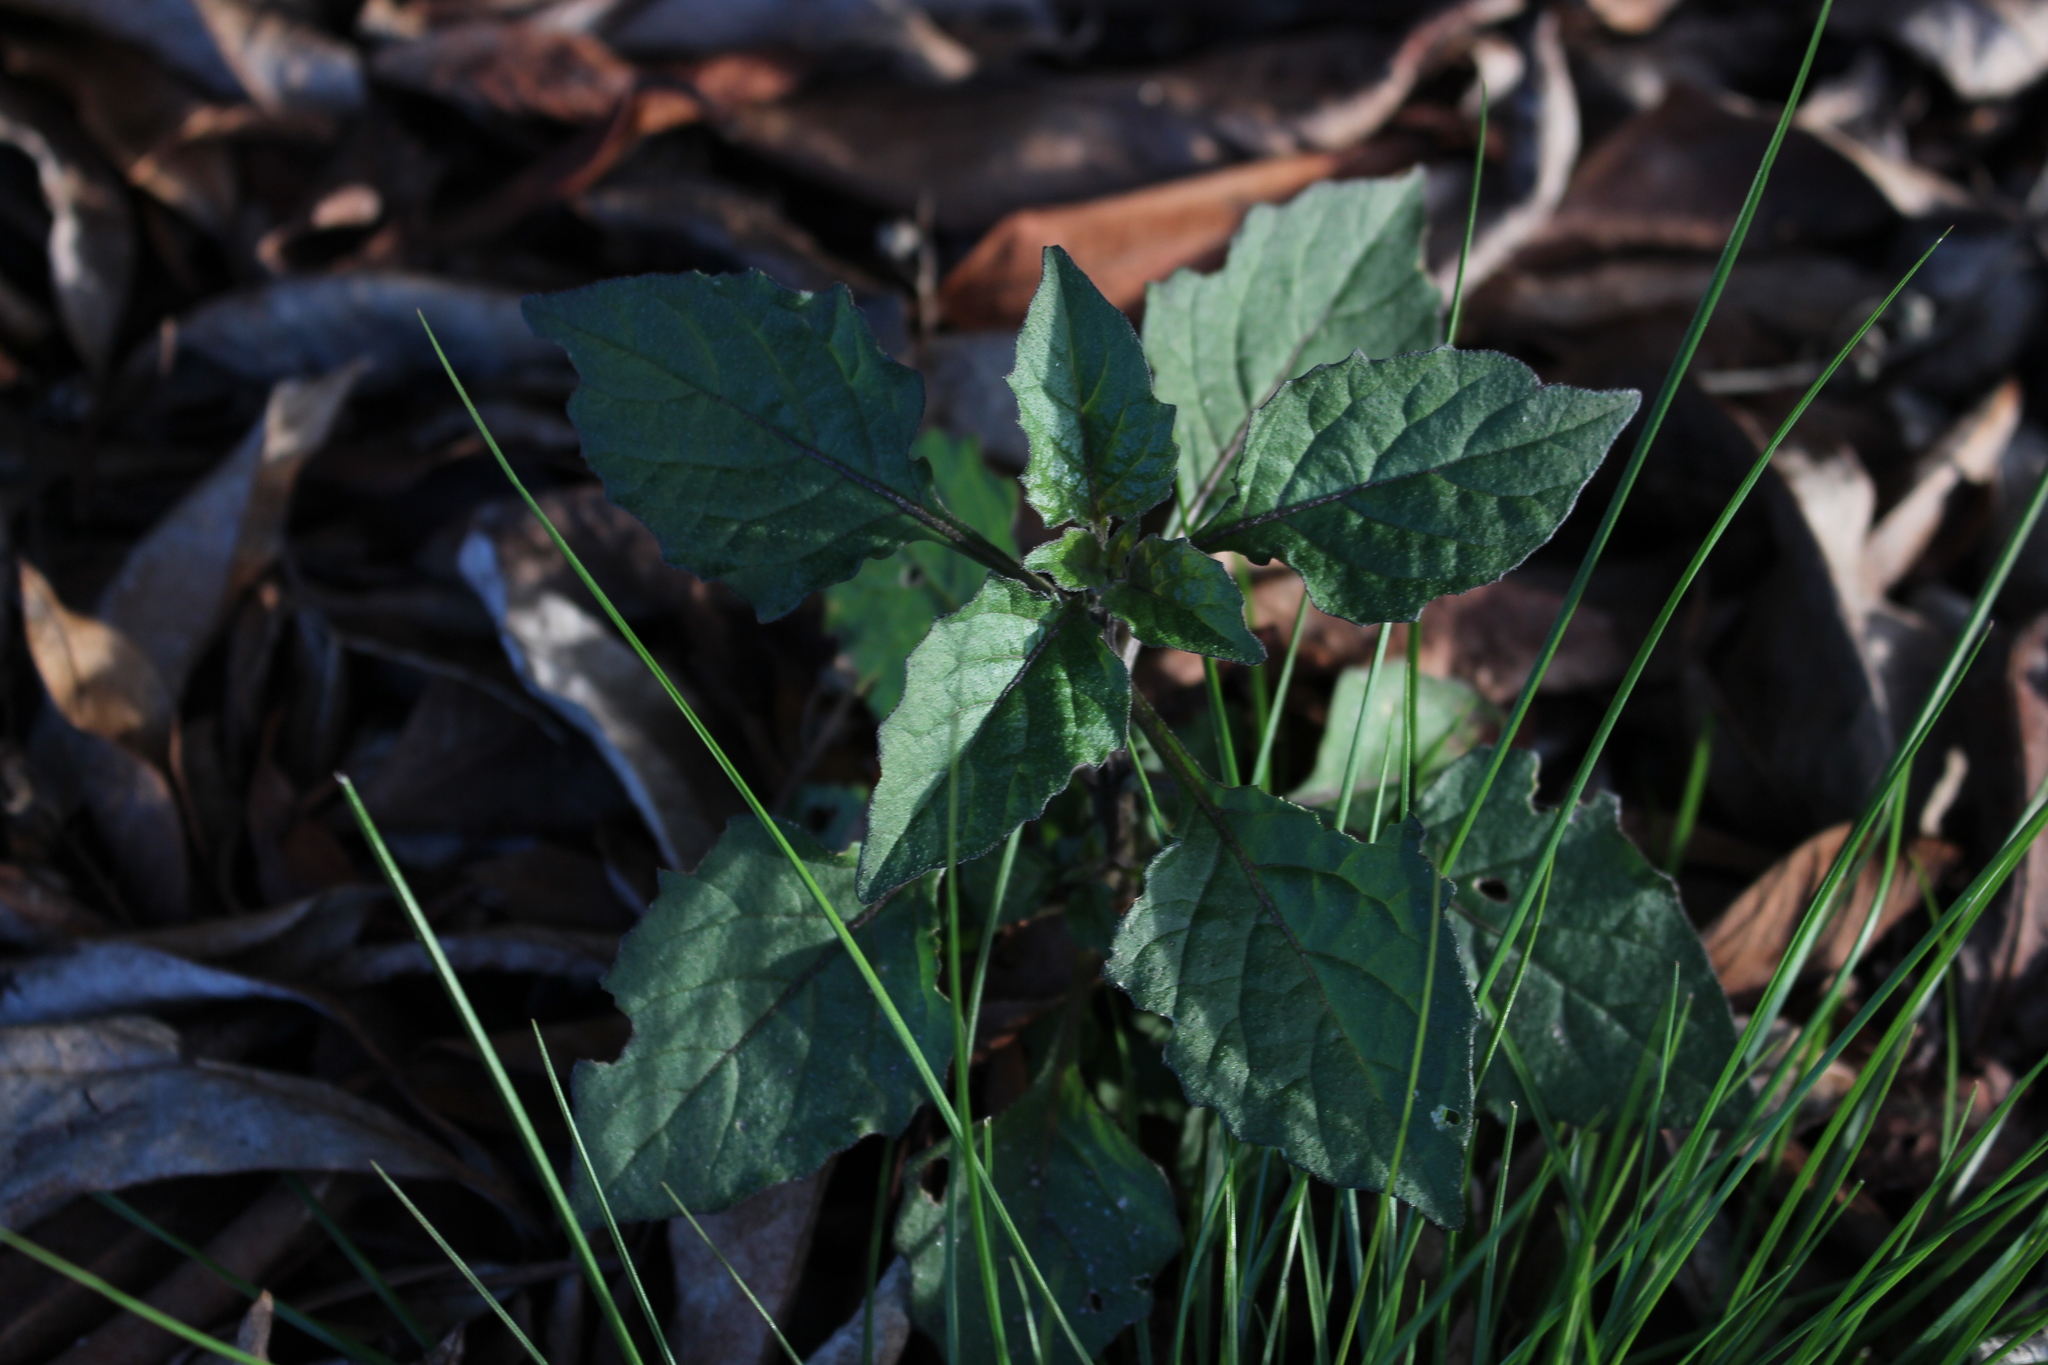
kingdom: Plantae
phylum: Tracheophyta
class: Magnoliopsida
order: Solanales
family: Solanaceae
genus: Solanum
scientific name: Solanum nigrum
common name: Black nightshade
